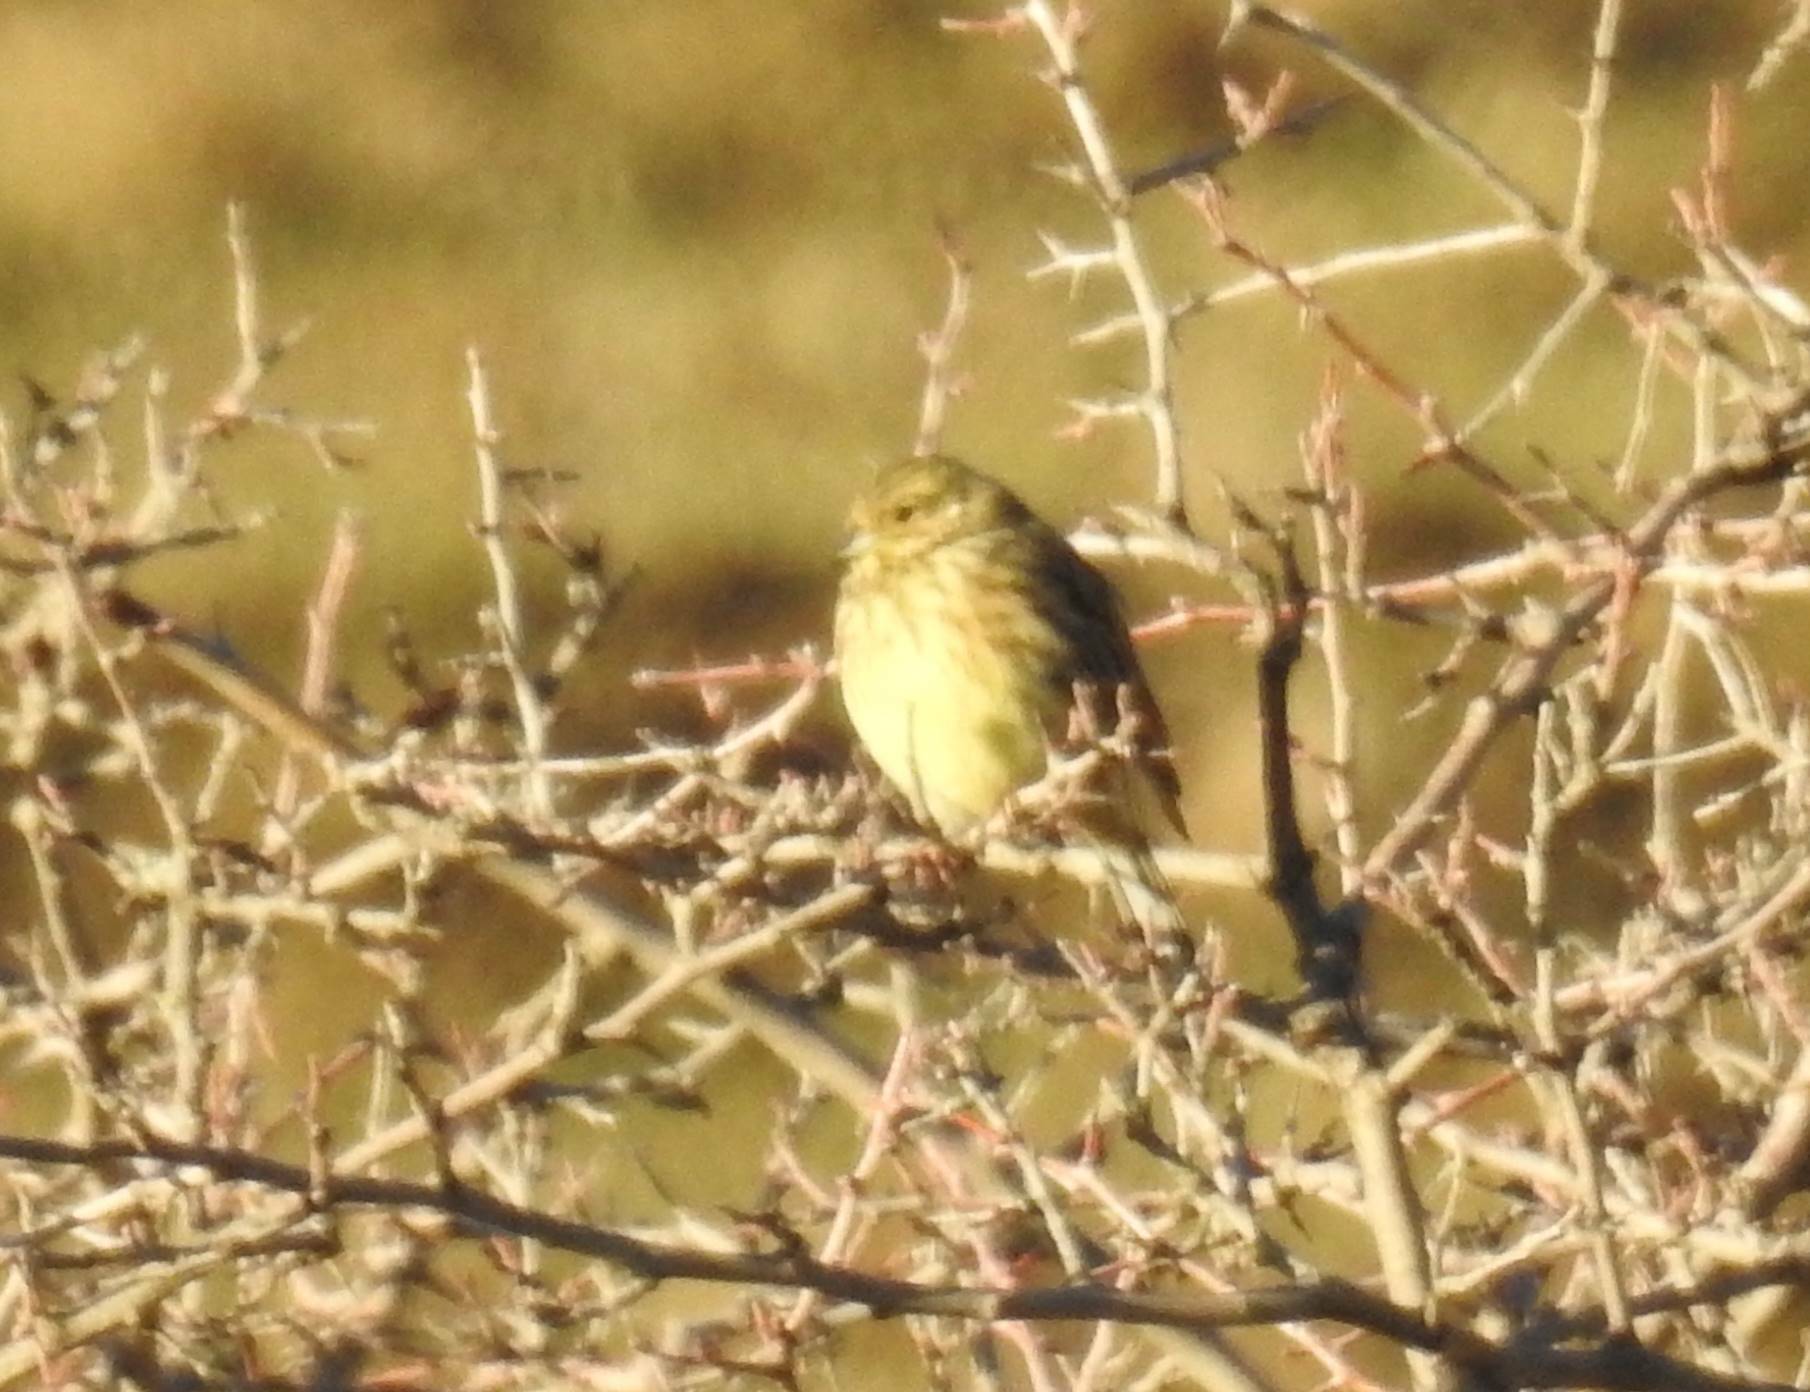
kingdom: Animalia
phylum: Chordata
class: Aves
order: Passeriformes
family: Emberizidae
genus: Emberiza
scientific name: Emberiza cirlus
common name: Cirl bunting
